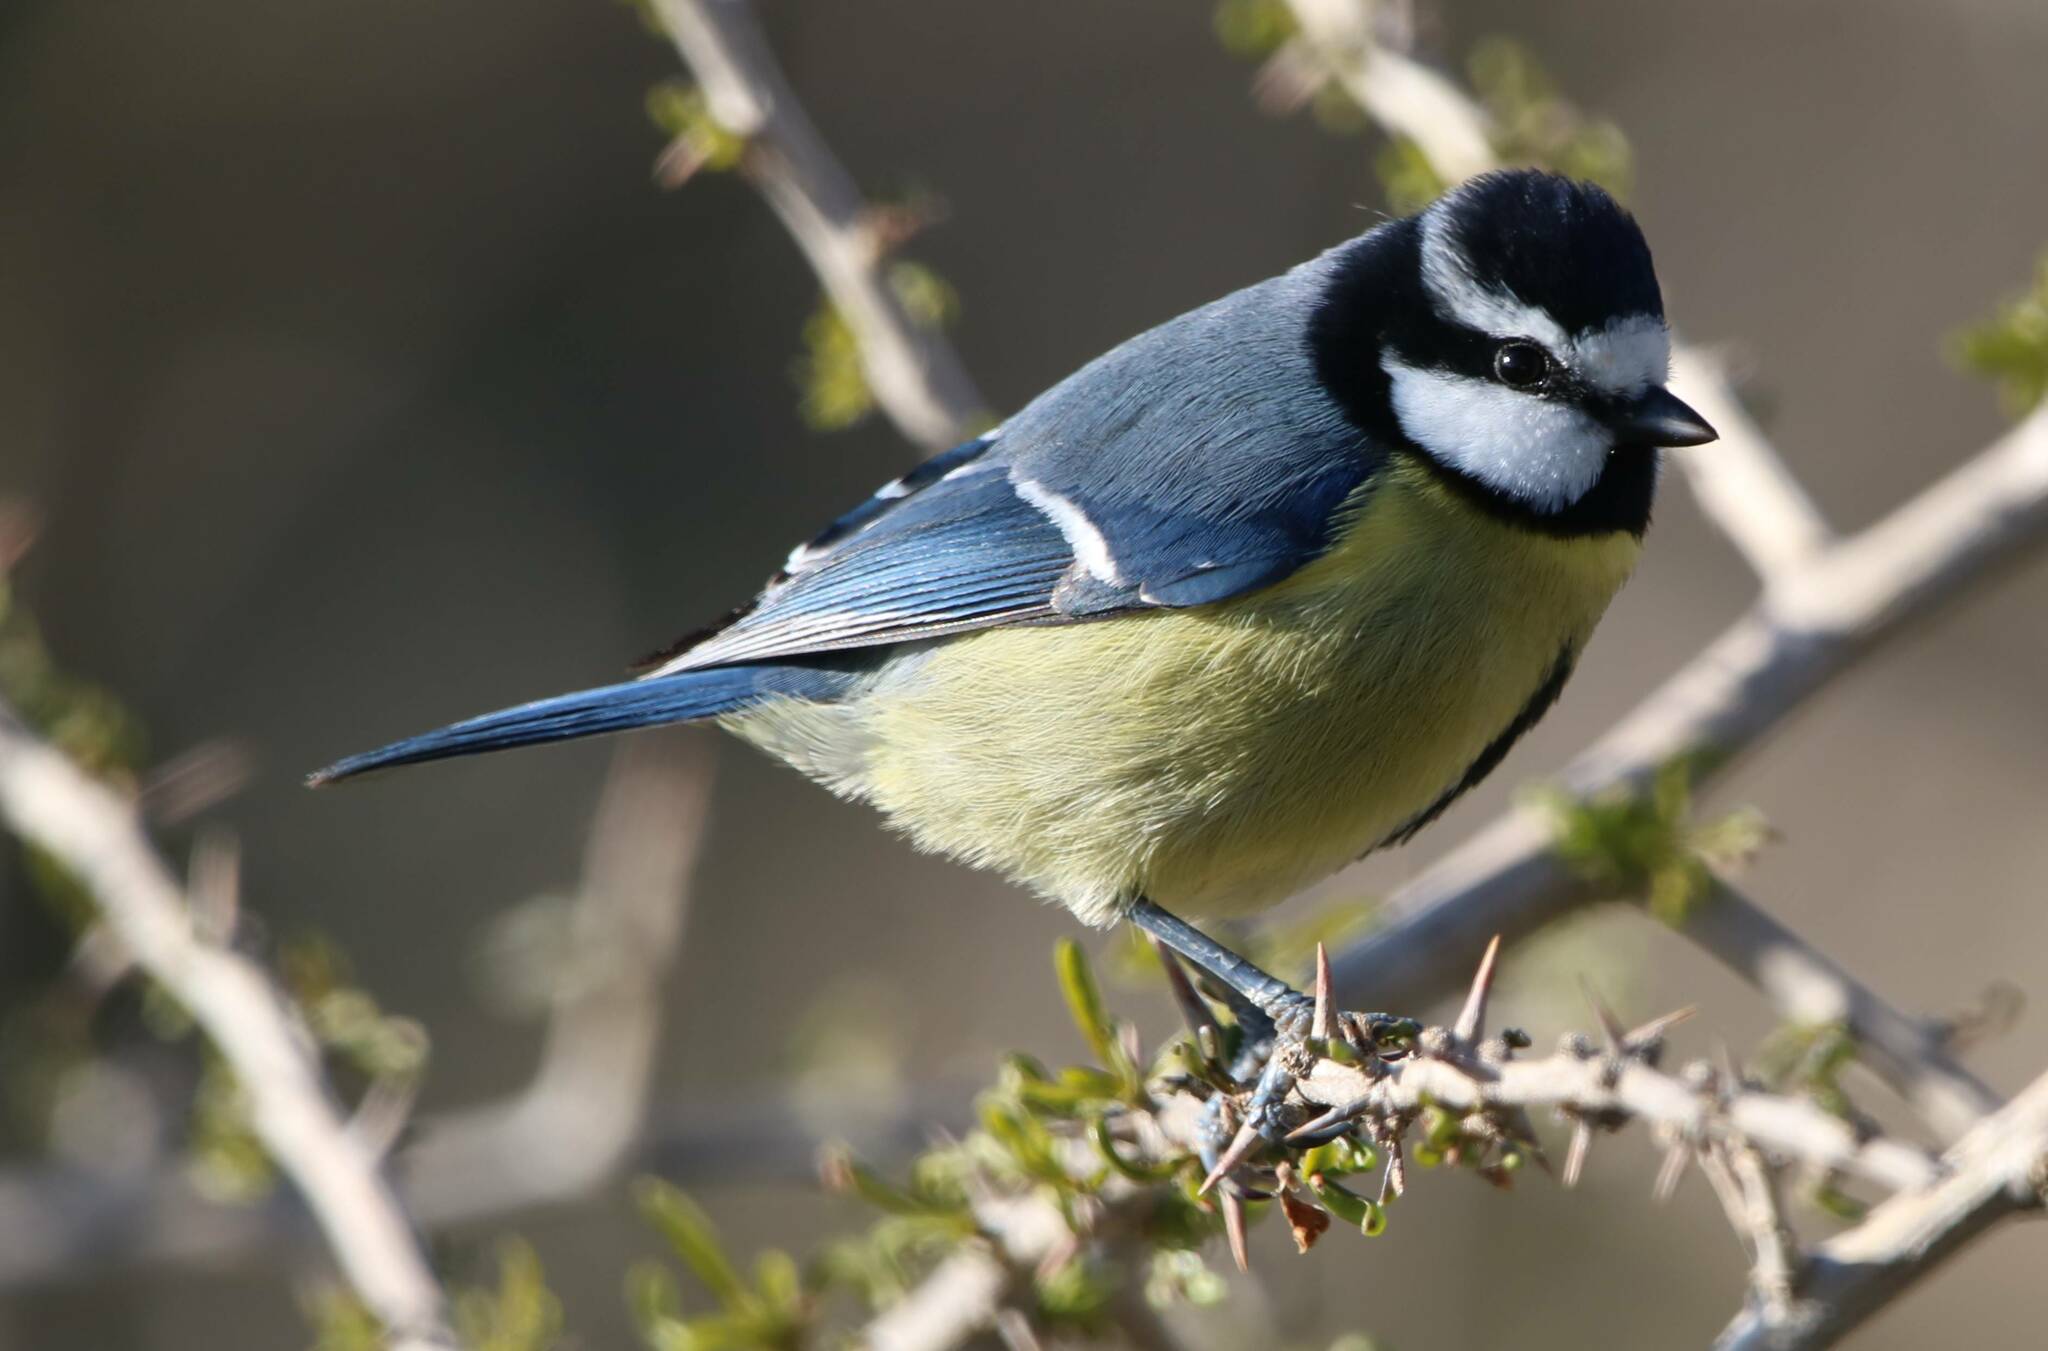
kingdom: Animalia
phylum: Chordata
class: Aves
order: Passeriformes
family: Paridae
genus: Cyanistes
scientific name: Cyanistes teneriffae
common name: African blue tit
